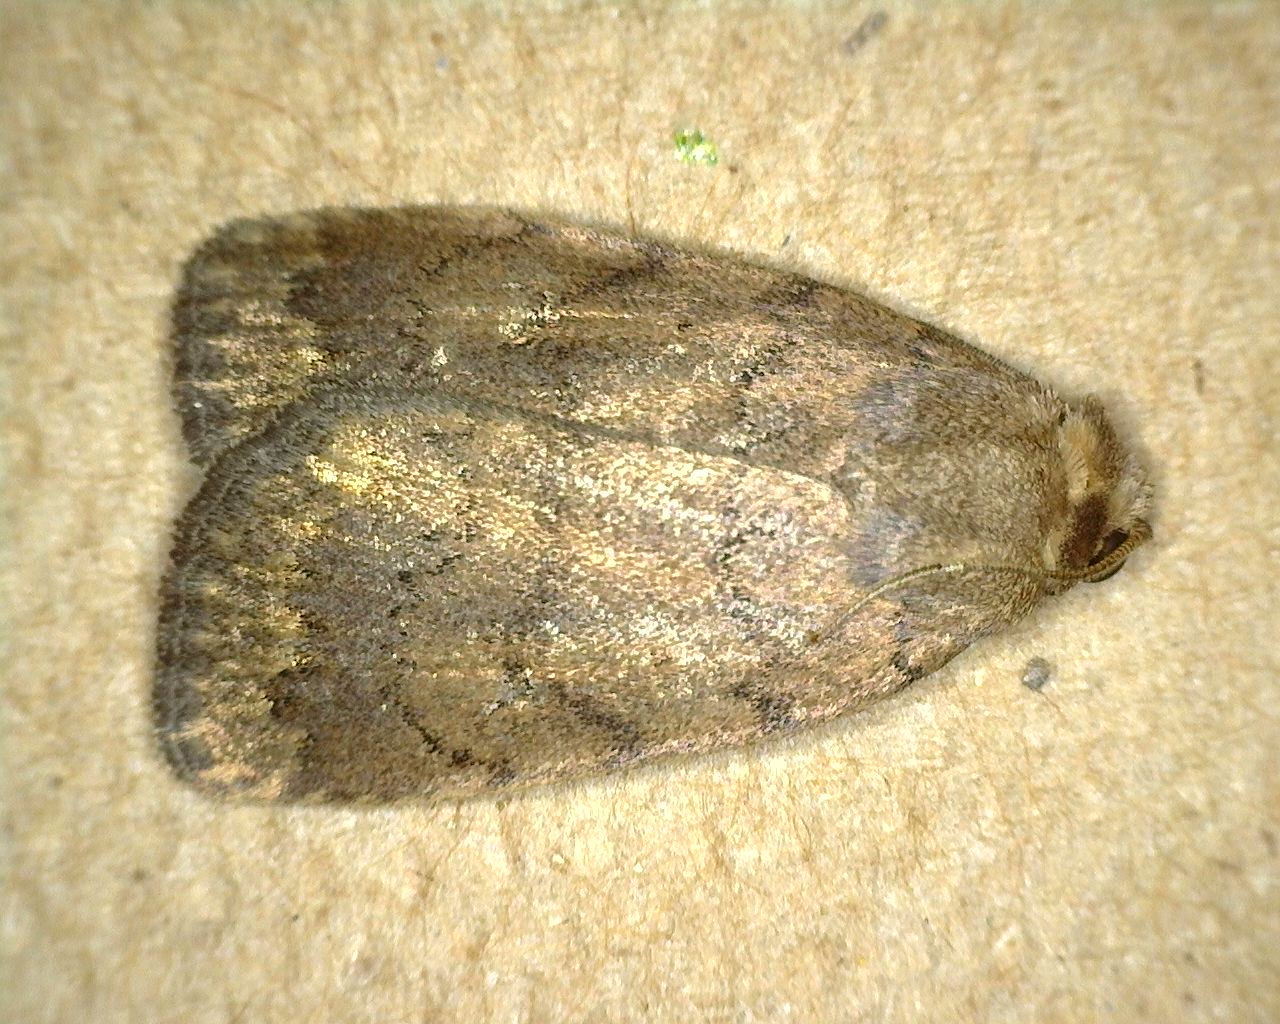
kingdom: Animalia
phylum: Arthropoda
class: Insecta
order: Lepidoptera
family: Noctuidae
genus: Athetis
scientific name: Athetis tarda
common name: Slowpoke moth
